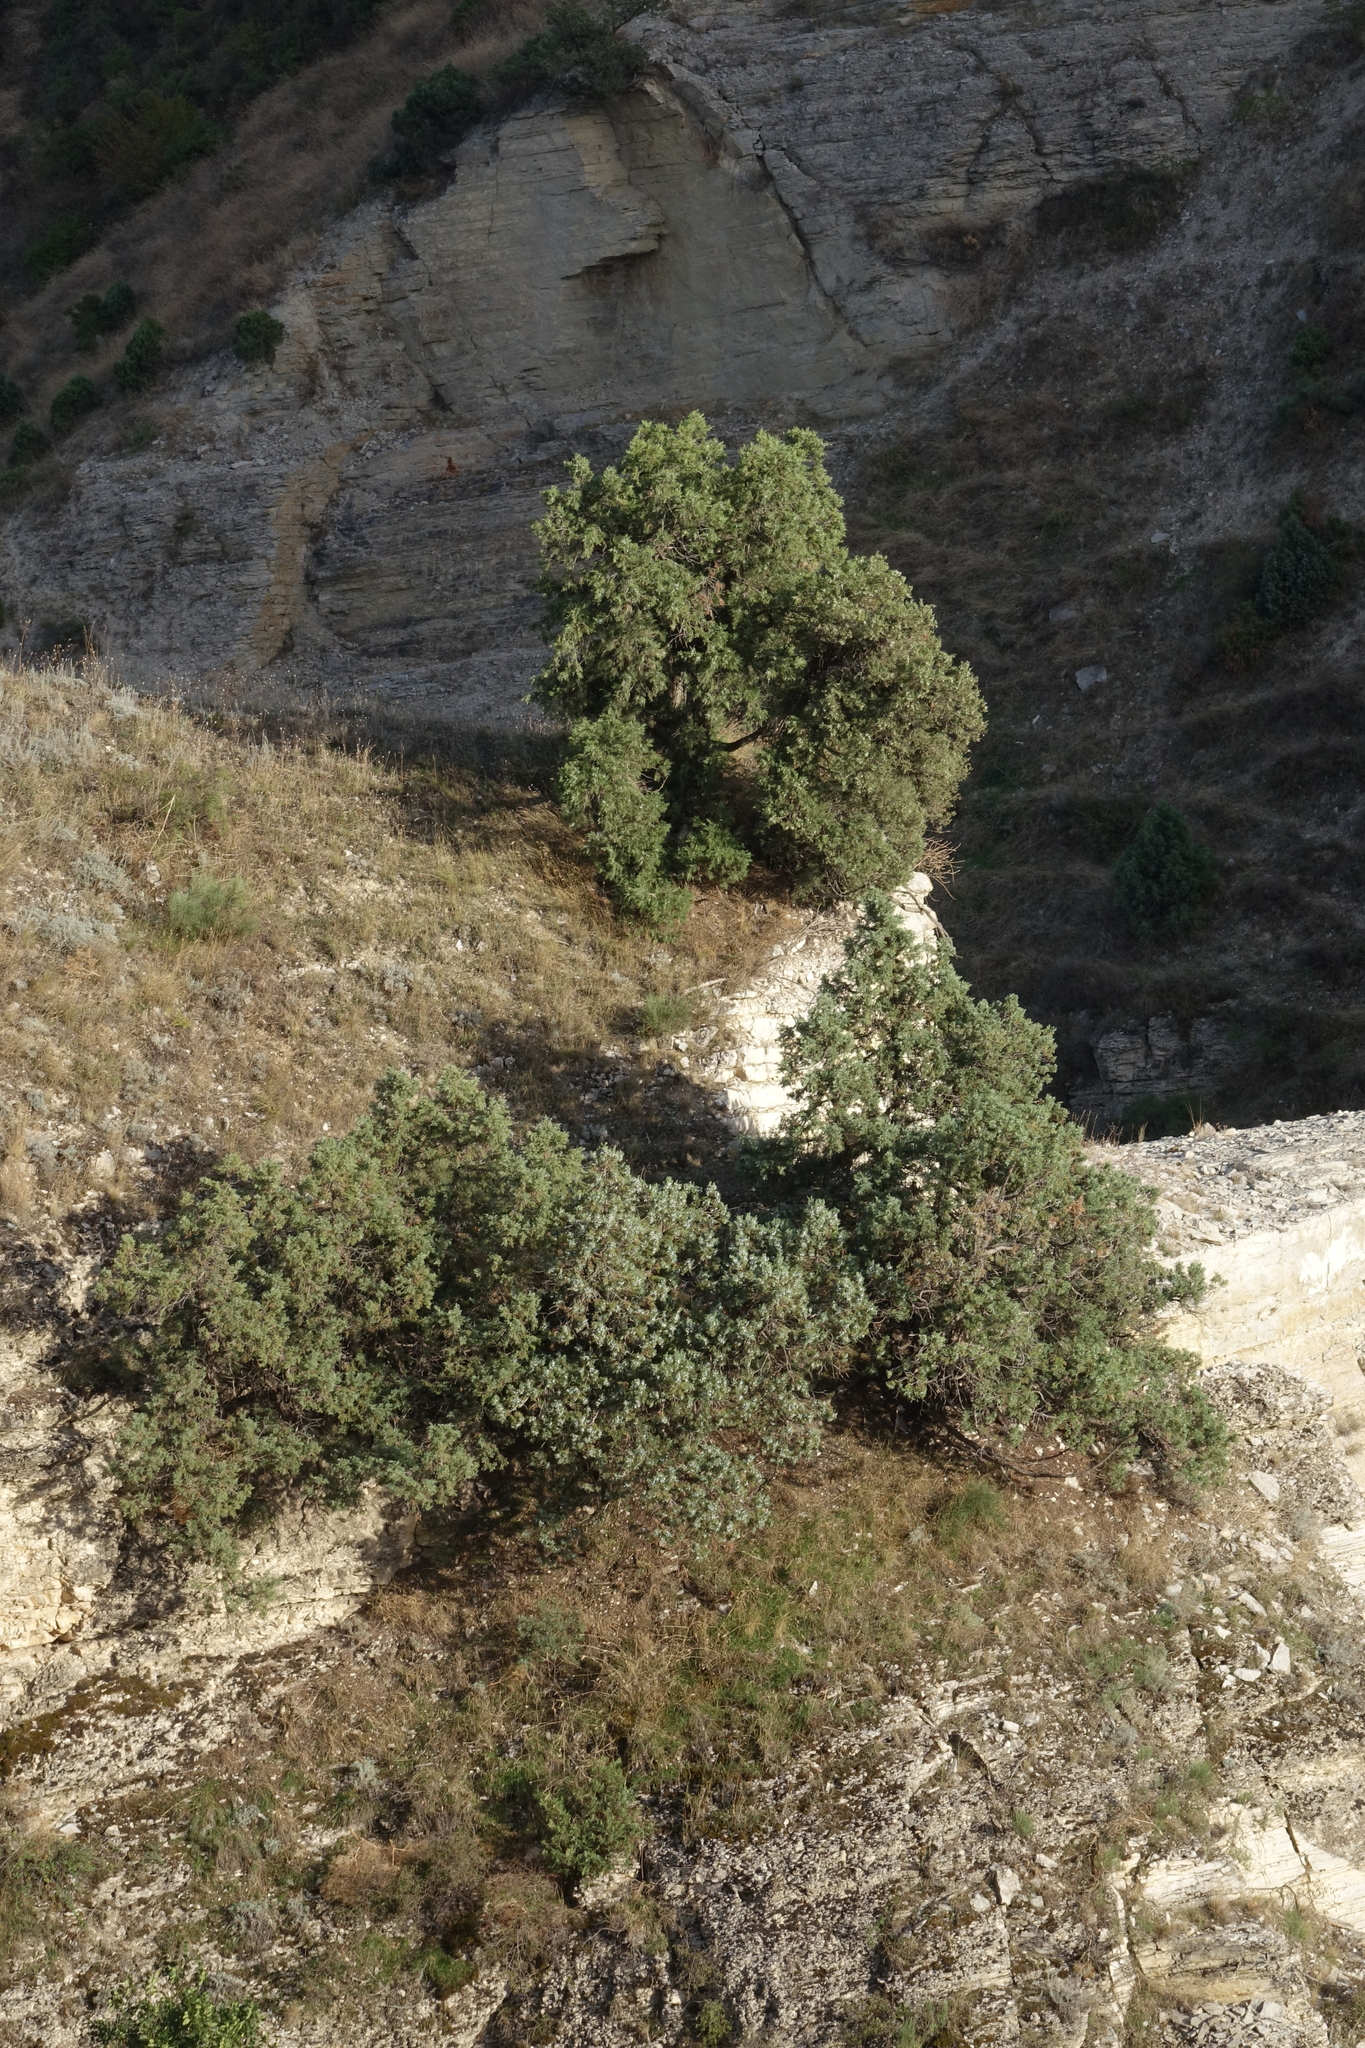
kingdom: Plantae
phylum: Tracheophyta
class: Pinopsida
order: Pinales
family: Cupressaceae
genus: Juniperus
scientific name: Juniperus excelsa
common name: Crimean juniper
